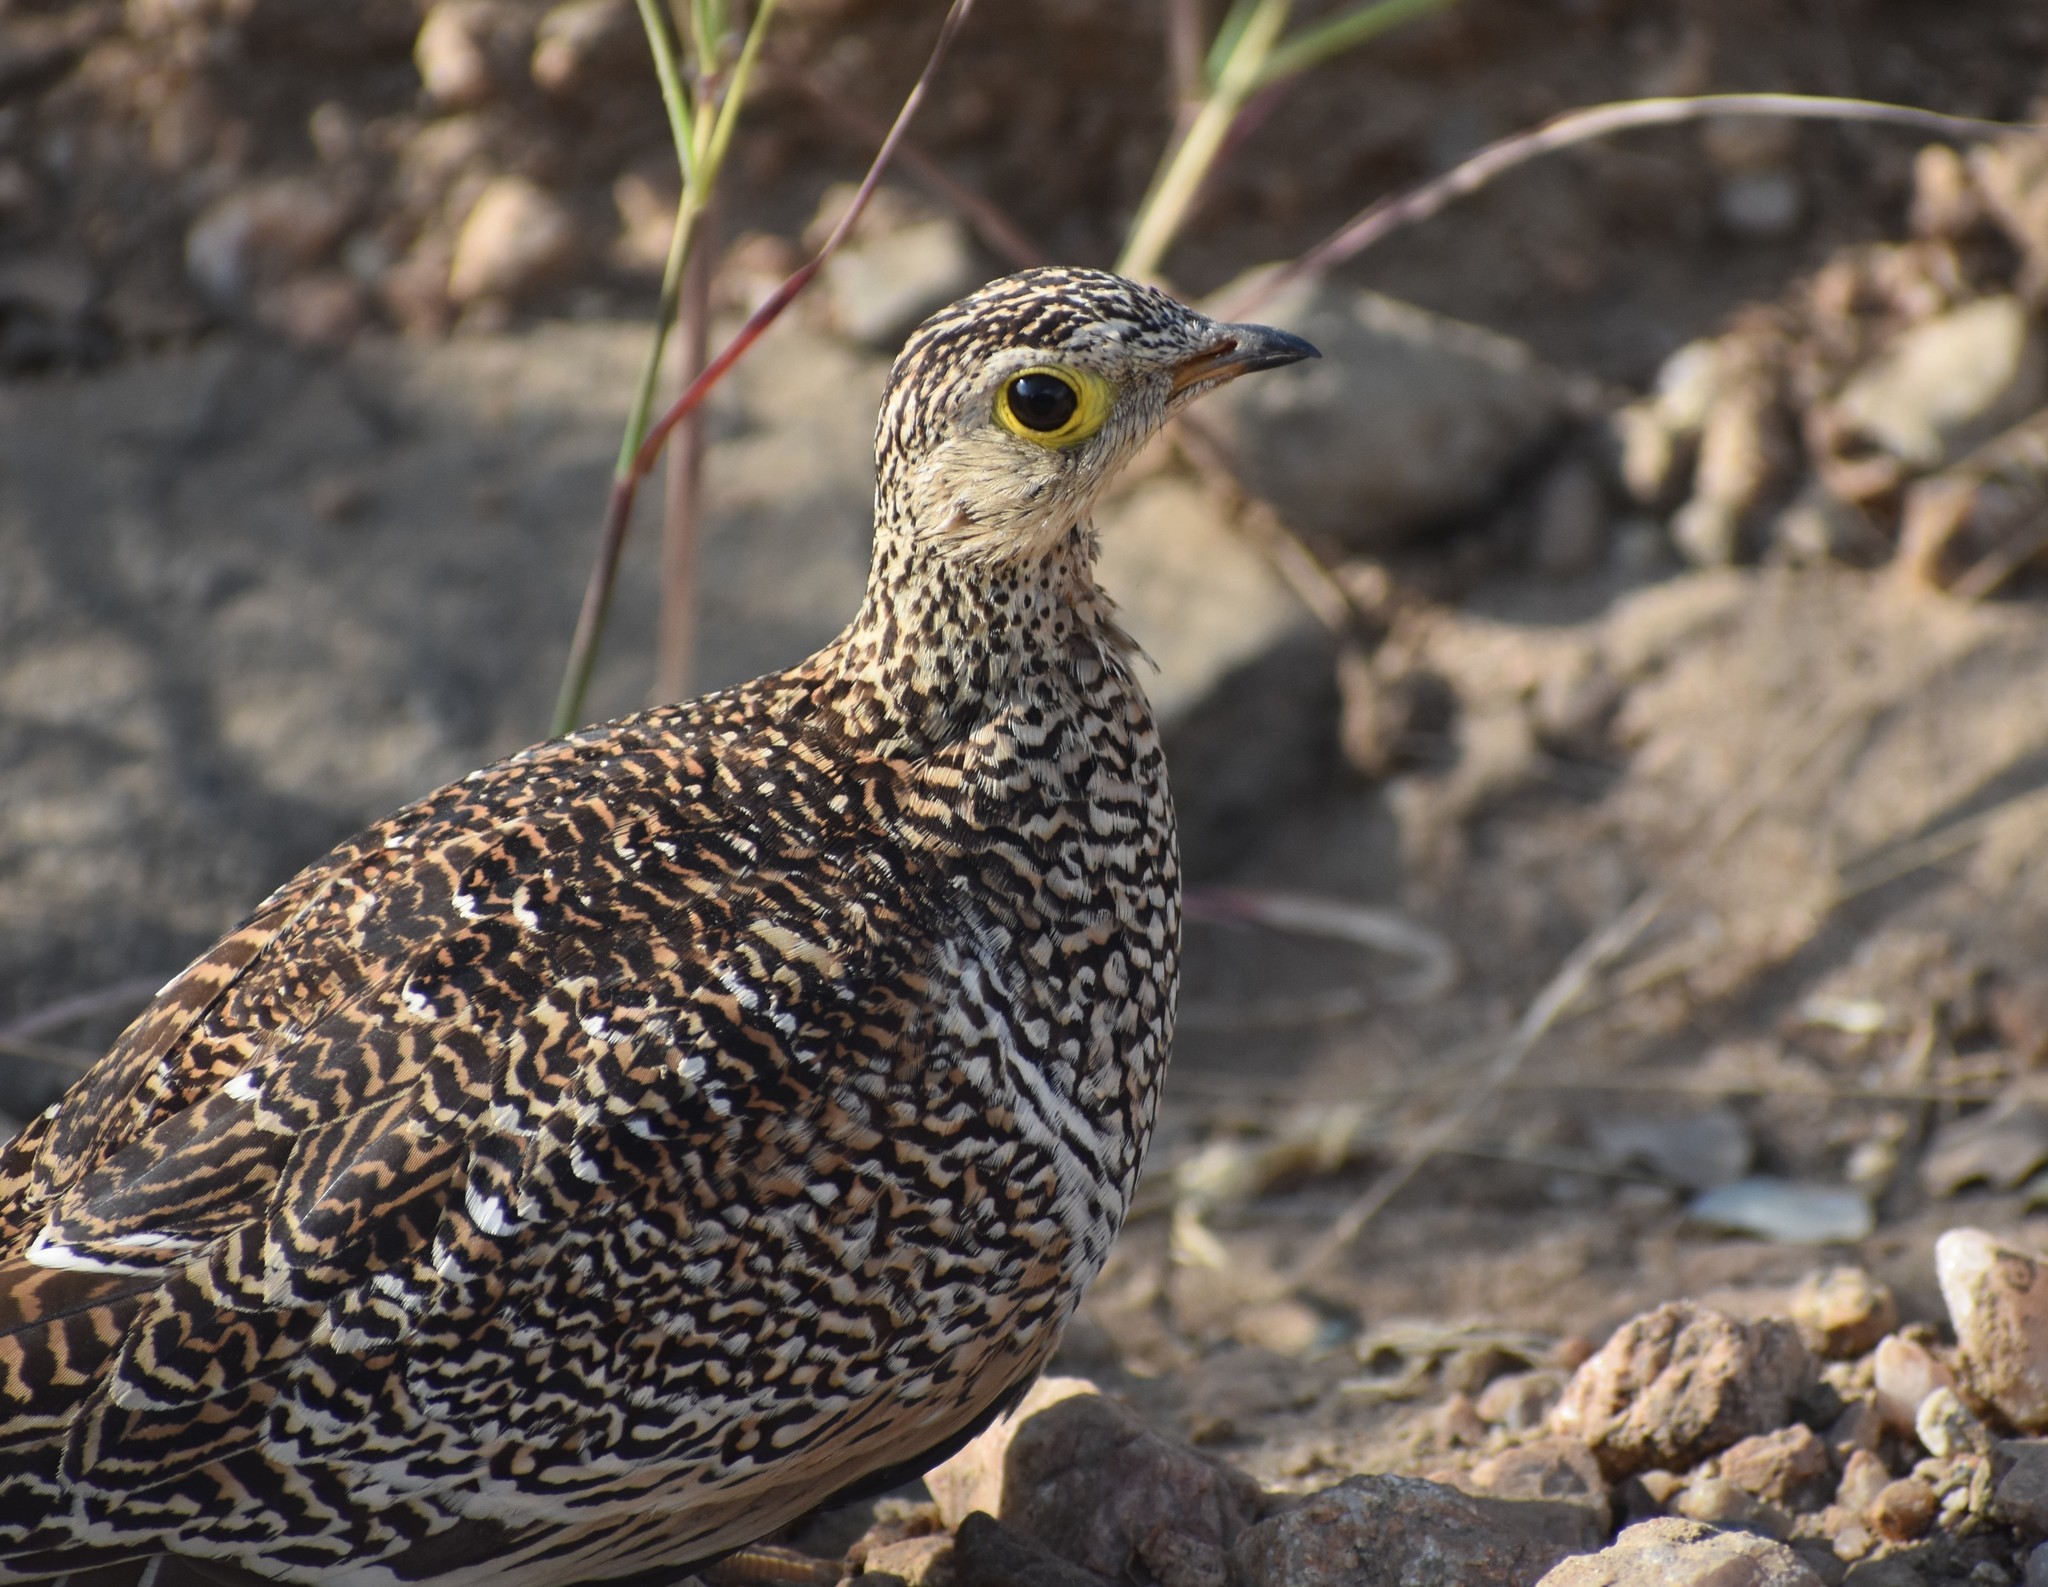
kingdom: Animalia
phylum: Chordata
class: Aves
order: Pteroclidiformes
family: Pteroclididae
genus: Pterocles
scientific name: Pterocles bicinctus
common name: Double-banded sandgrouse
